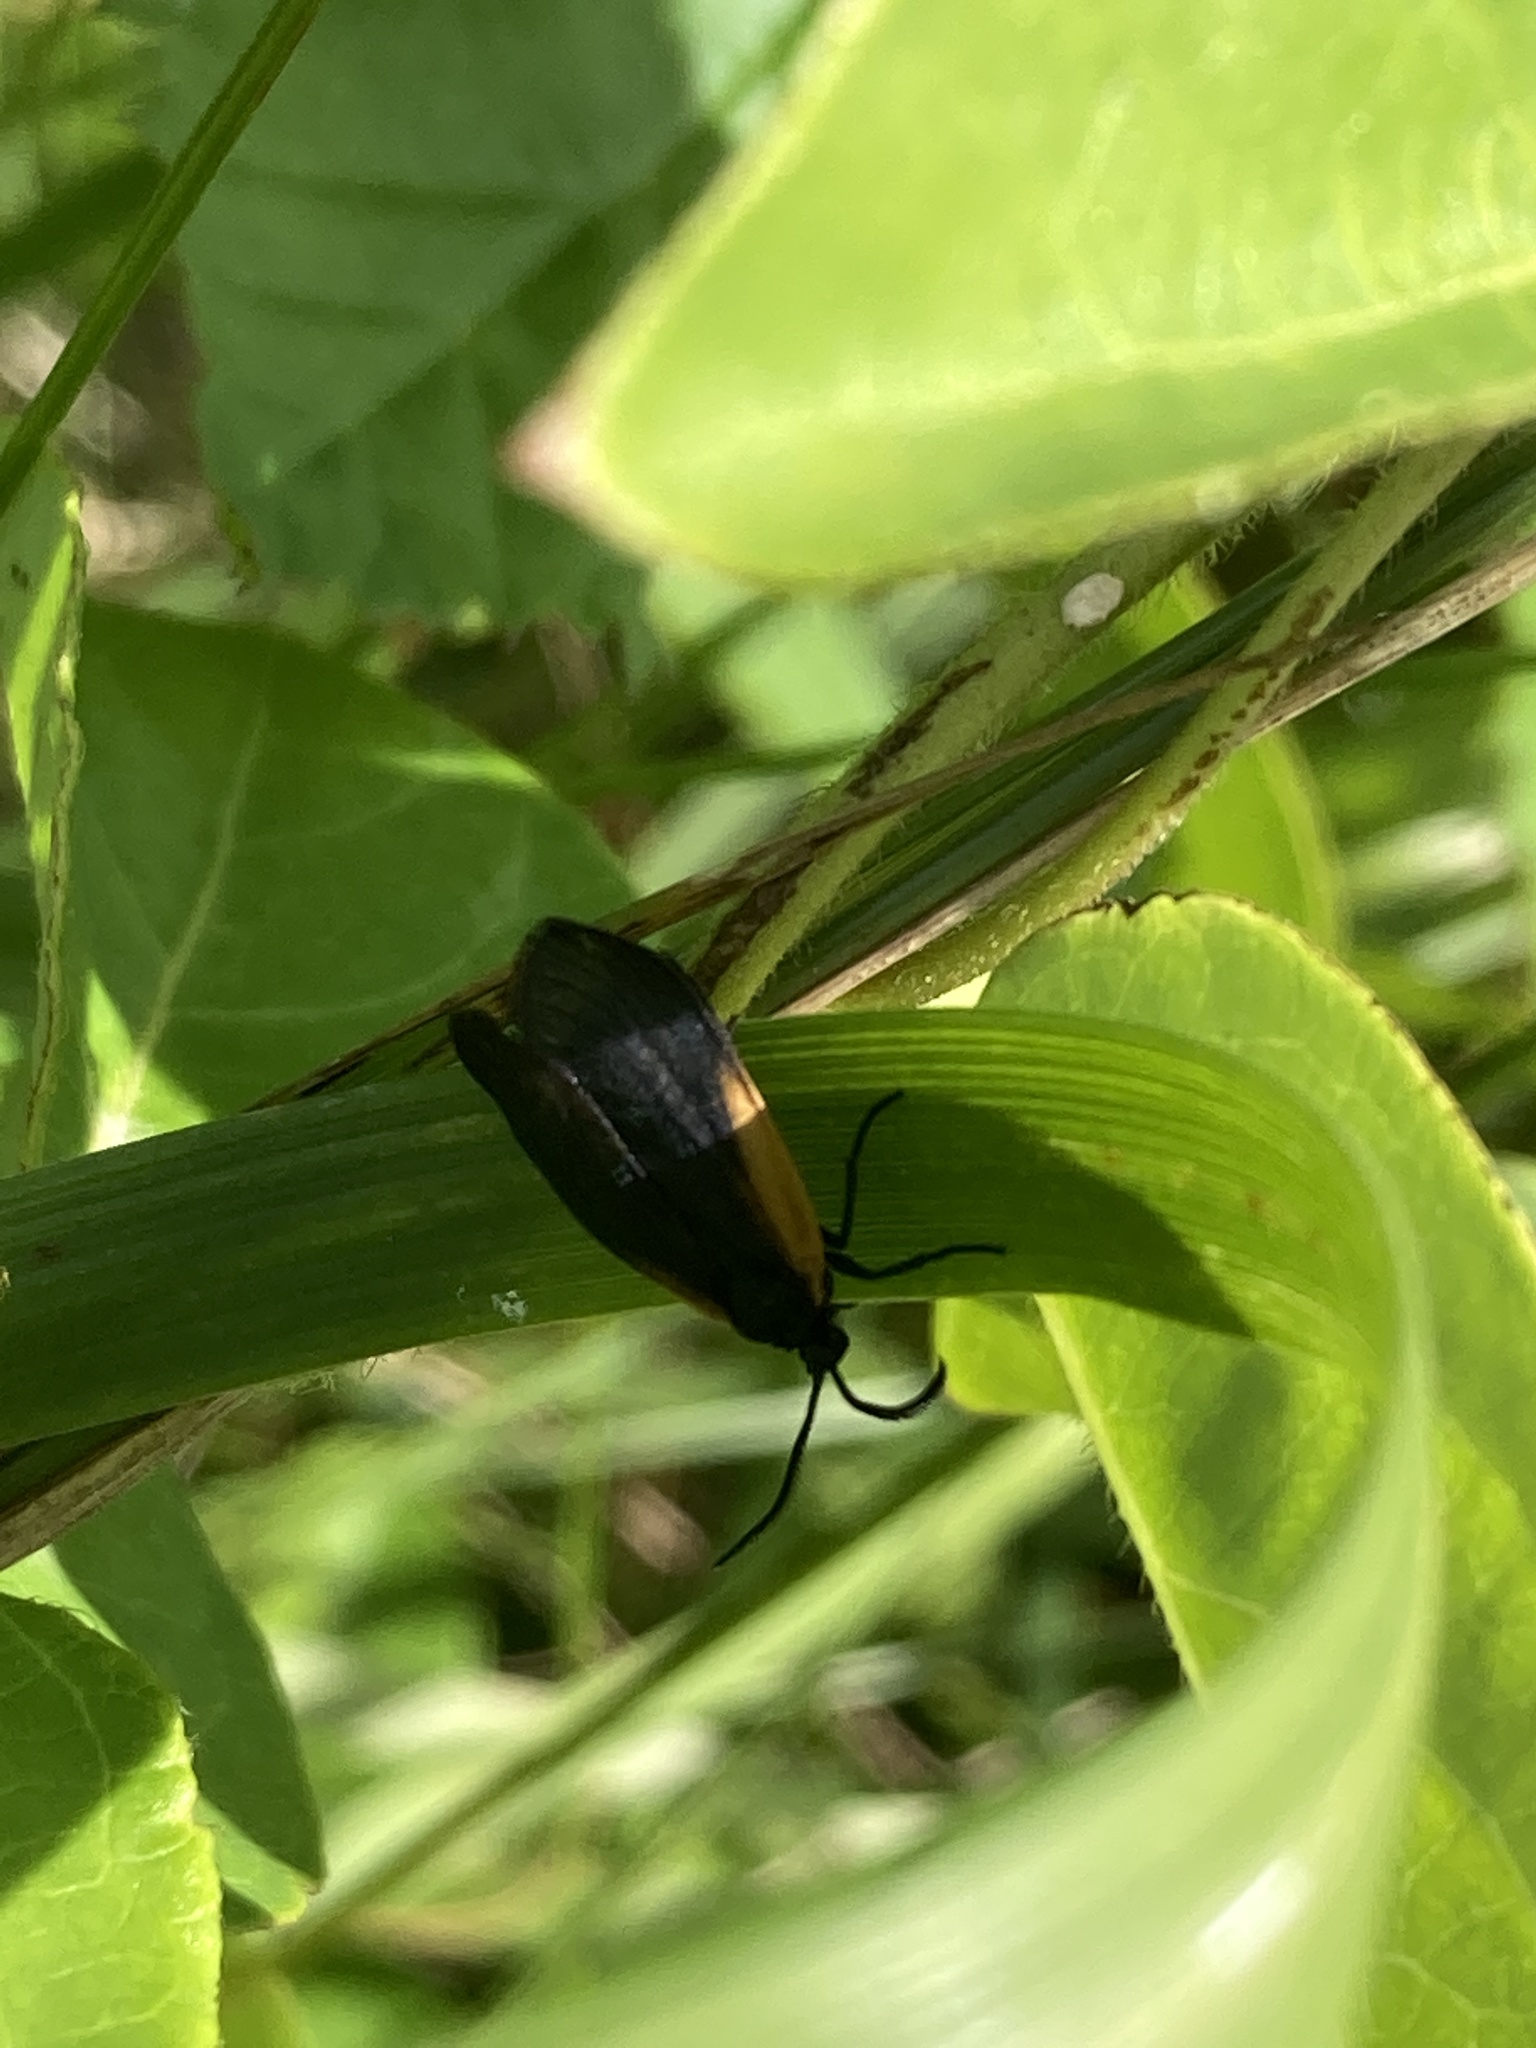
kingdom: Animalia
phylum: Arthropoda
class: Insecta
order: Lepidoptera
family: Zygaenidae
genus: Malthaca
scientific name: Malthaca dimidiata
